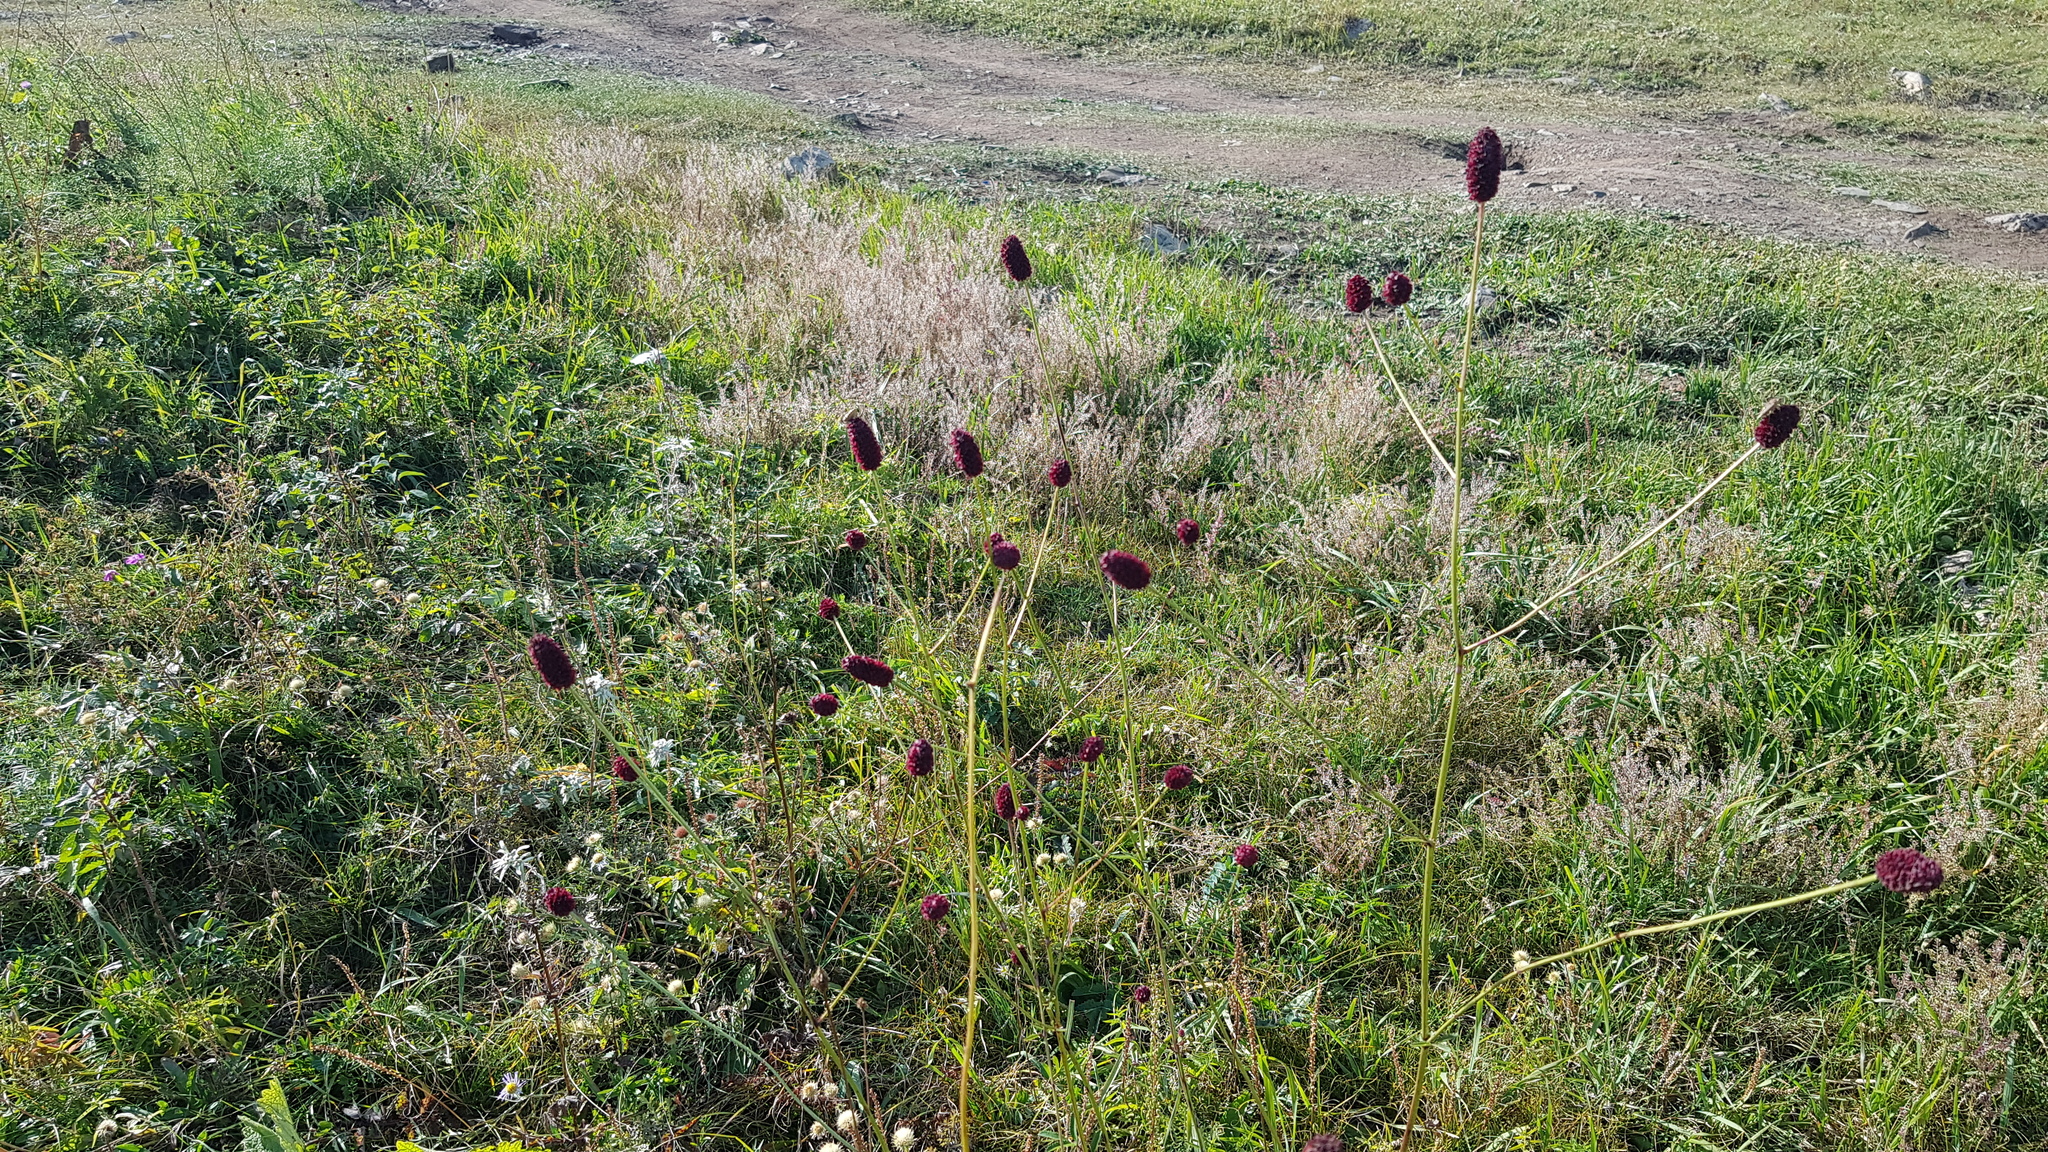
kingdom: Plantae
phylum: Tracheophyta
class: Magnoliopsida
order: Rosales
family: Rosaceae
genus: Sanguisorba
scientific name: Sanguisorba officinalis
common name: Great burnet
